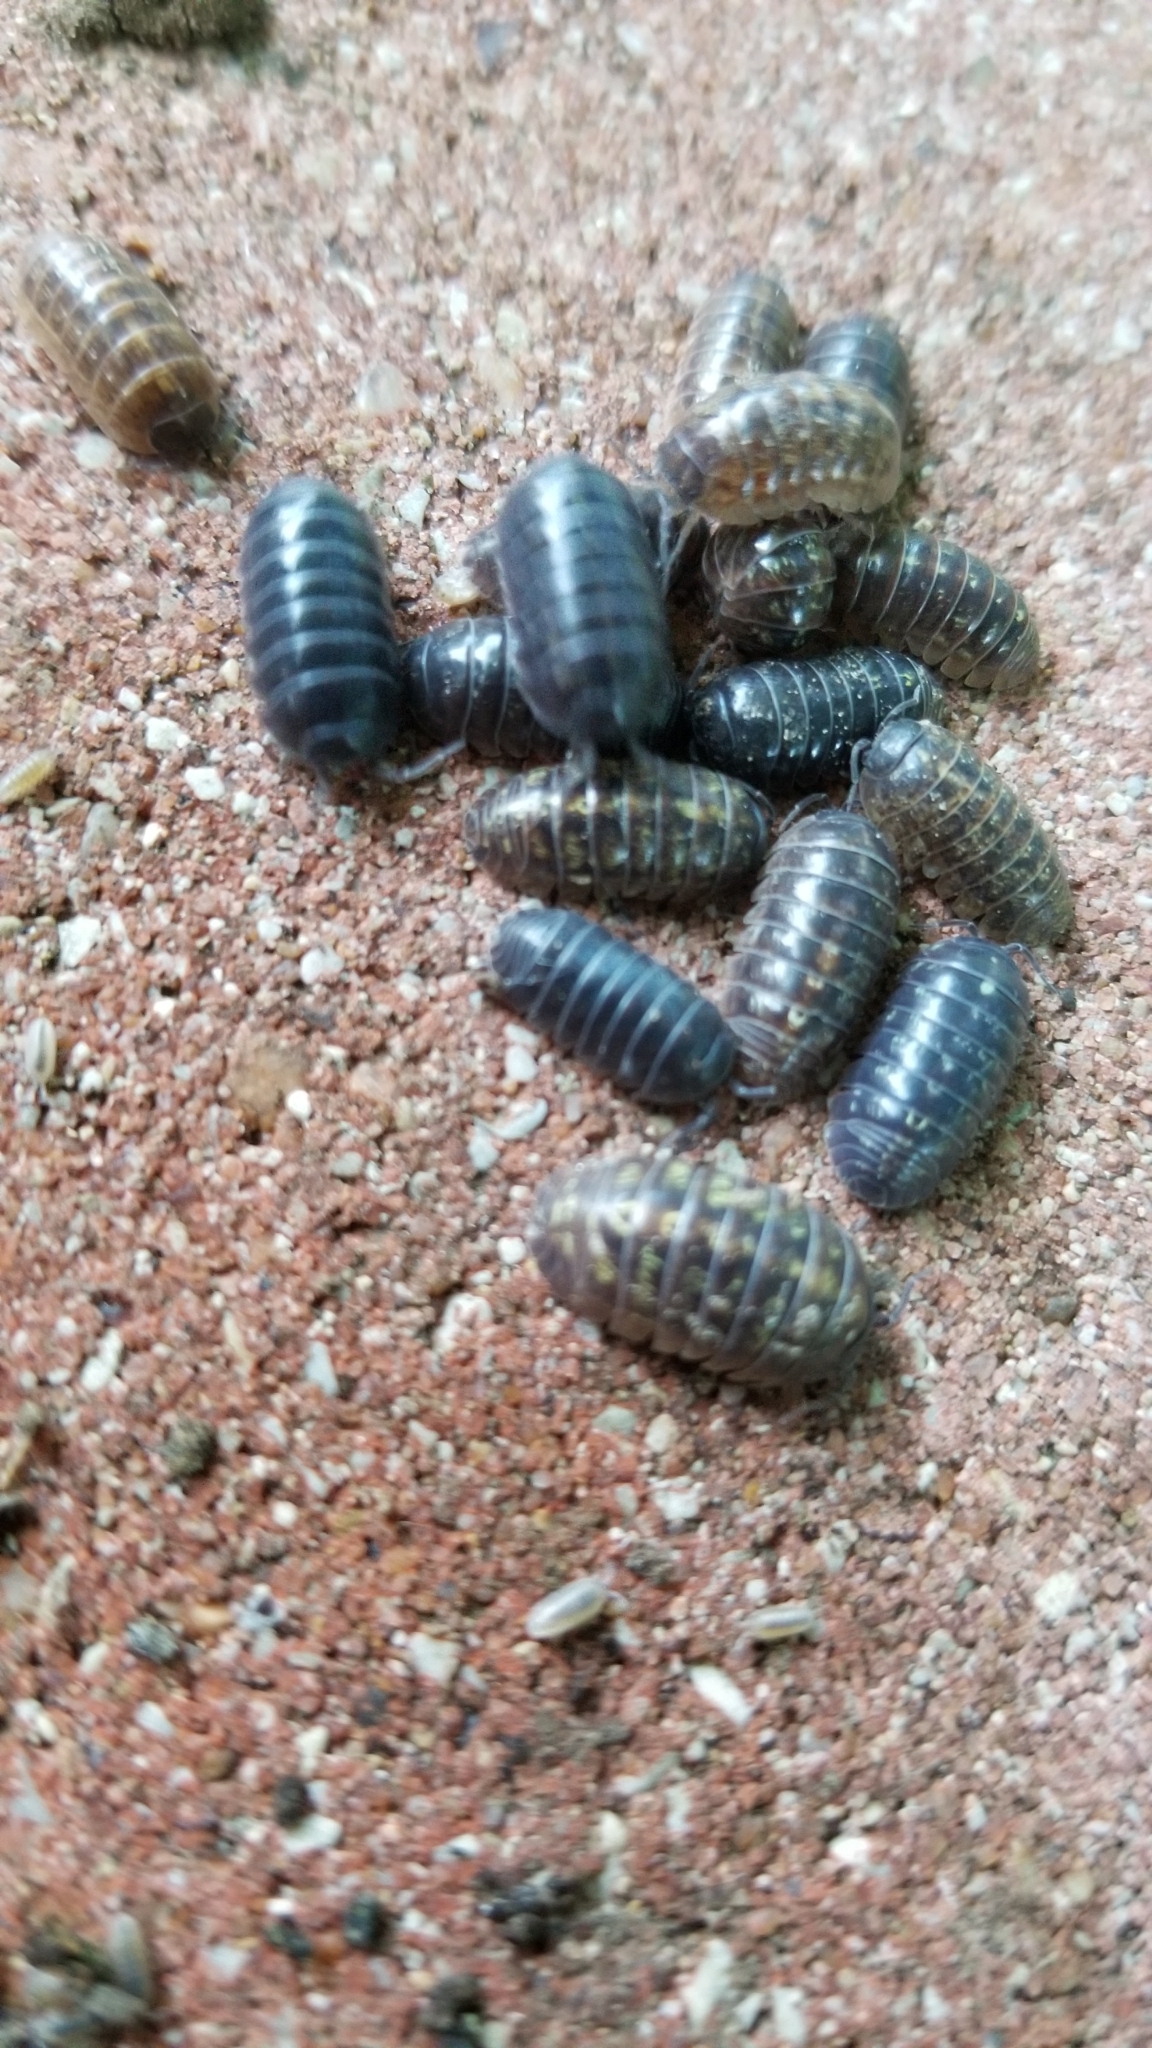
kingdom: Animalia
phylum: Arthropoda
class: Malacostraca
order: Isopoda
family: Armadillidiidae
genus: Armadillidium
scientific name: Armadillidium vulgare
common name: Common pill woodlouse
